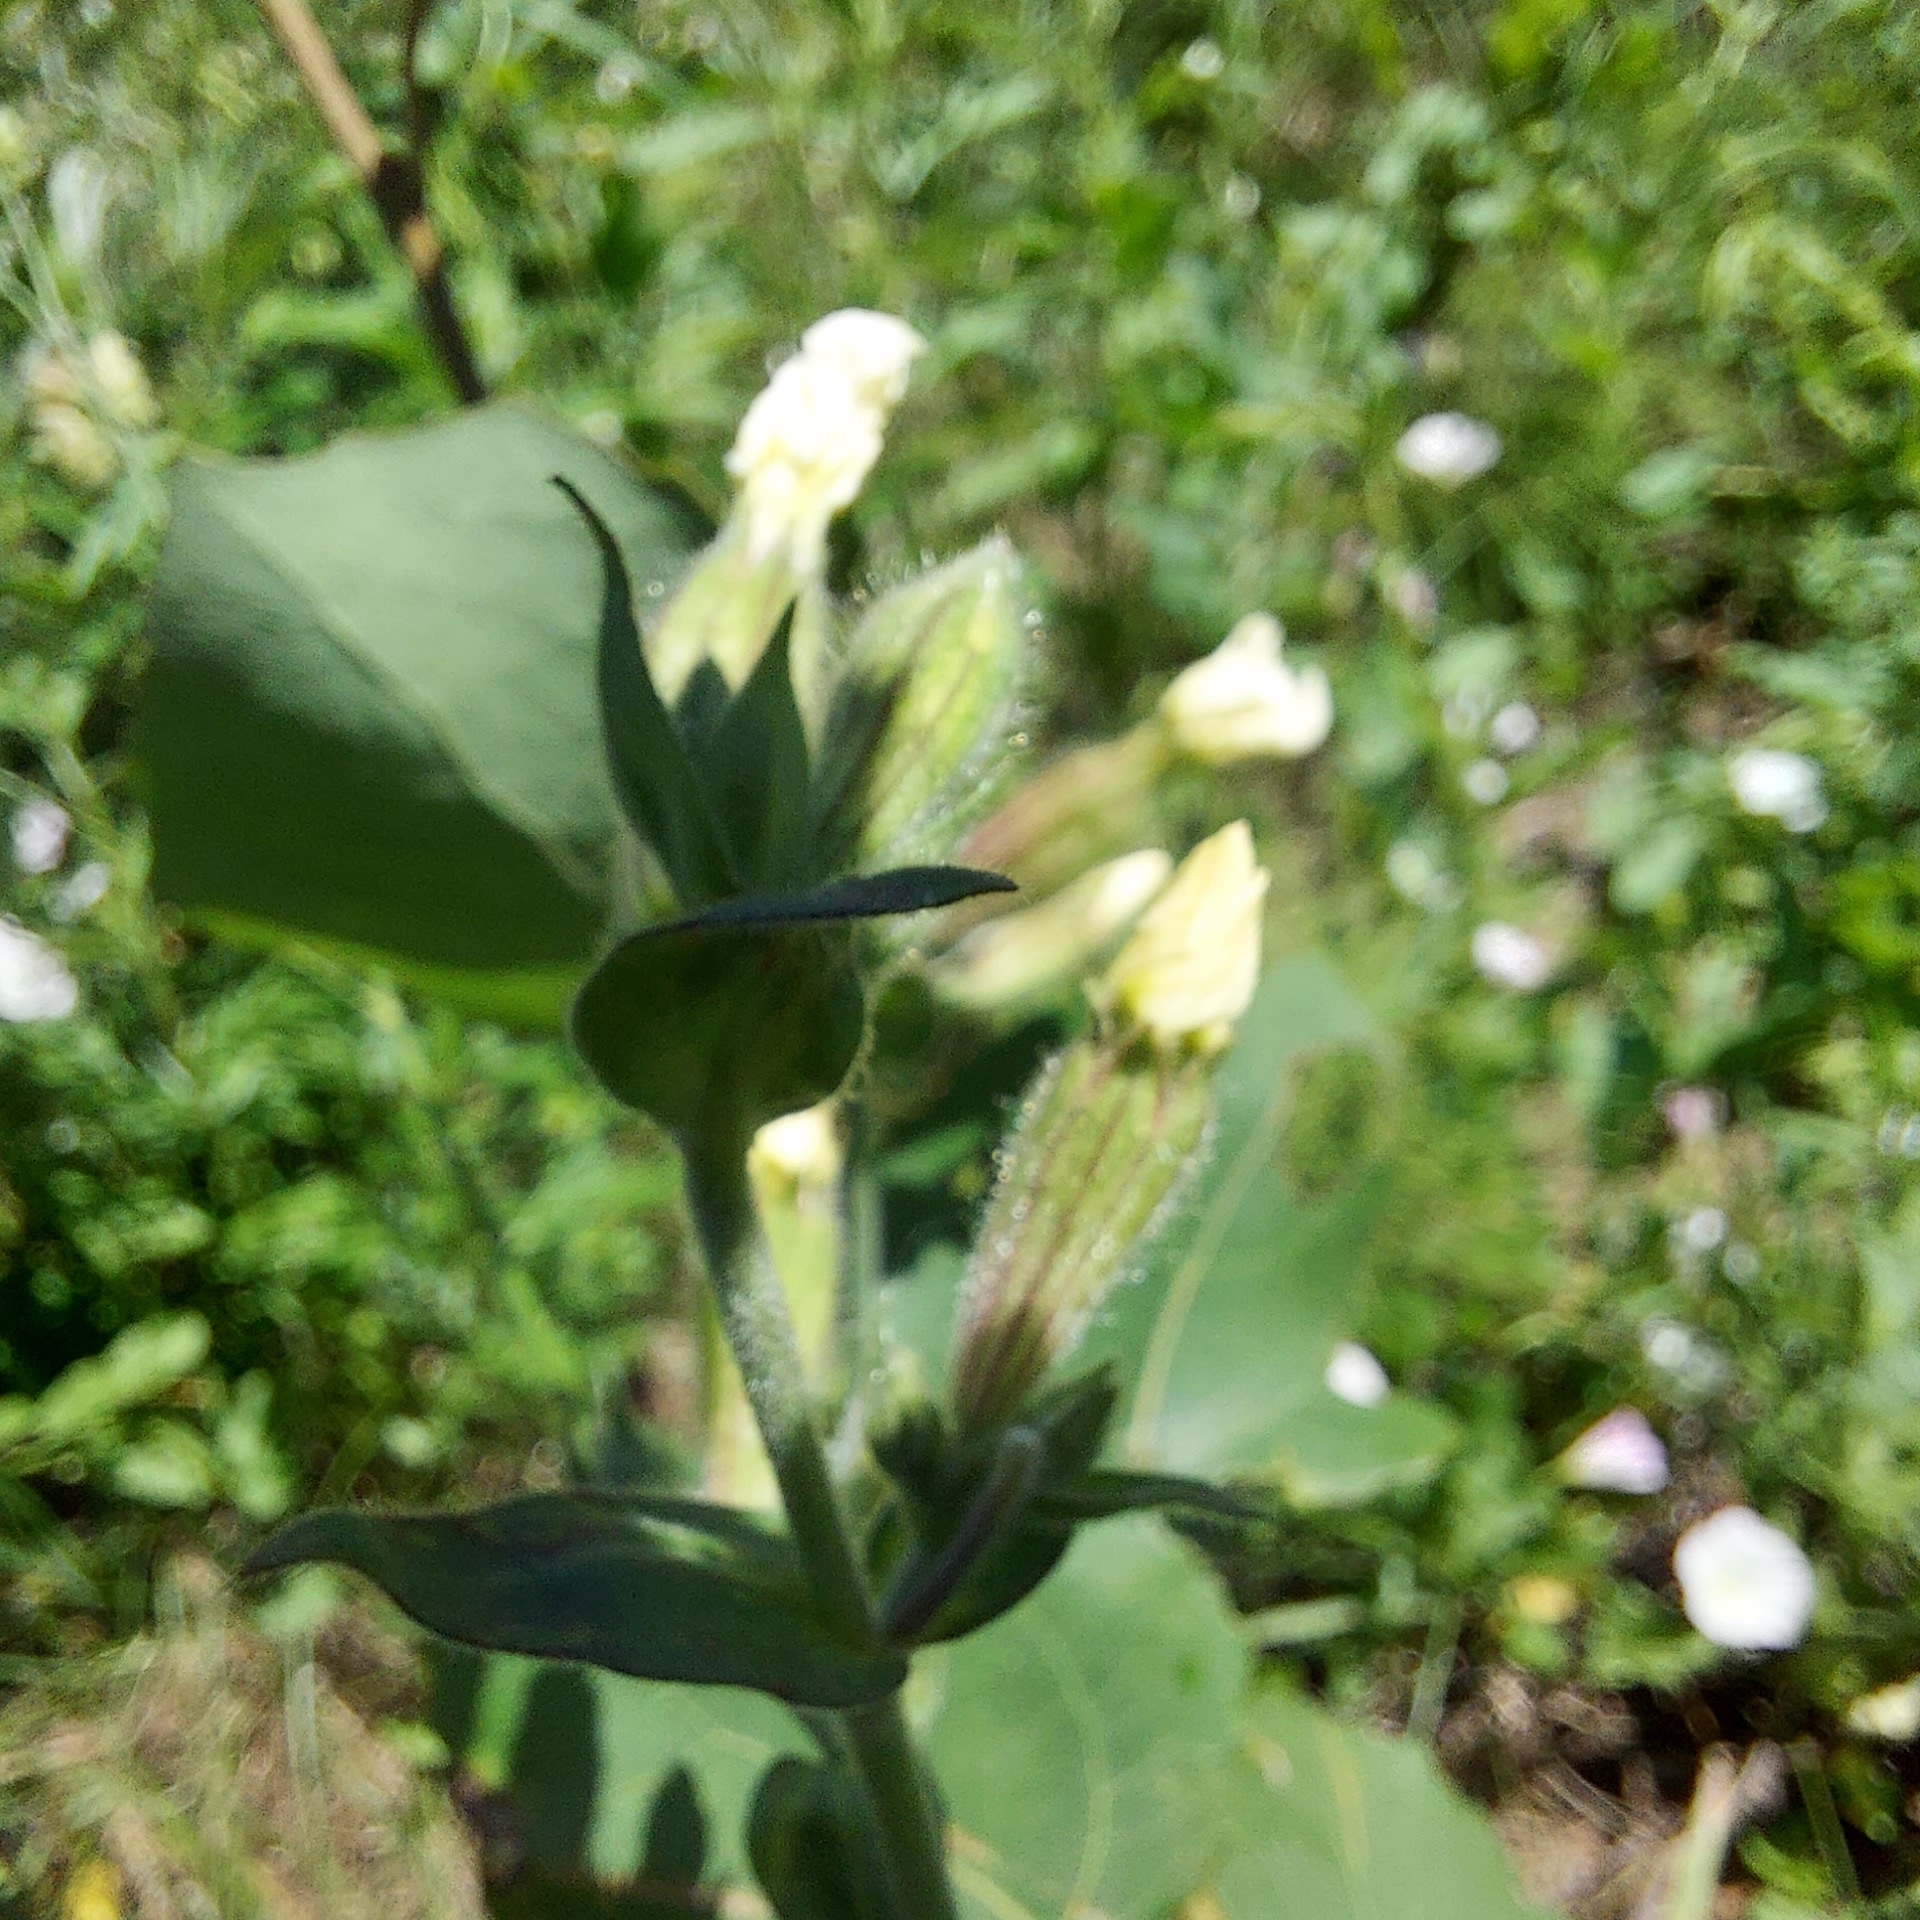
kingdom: Plantae
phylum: Tracheophyta
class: Magnoliopsida
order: Caryophyllales
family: Caryophyllaceae
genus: Silene
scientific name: Silene latifolia
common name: White campion
